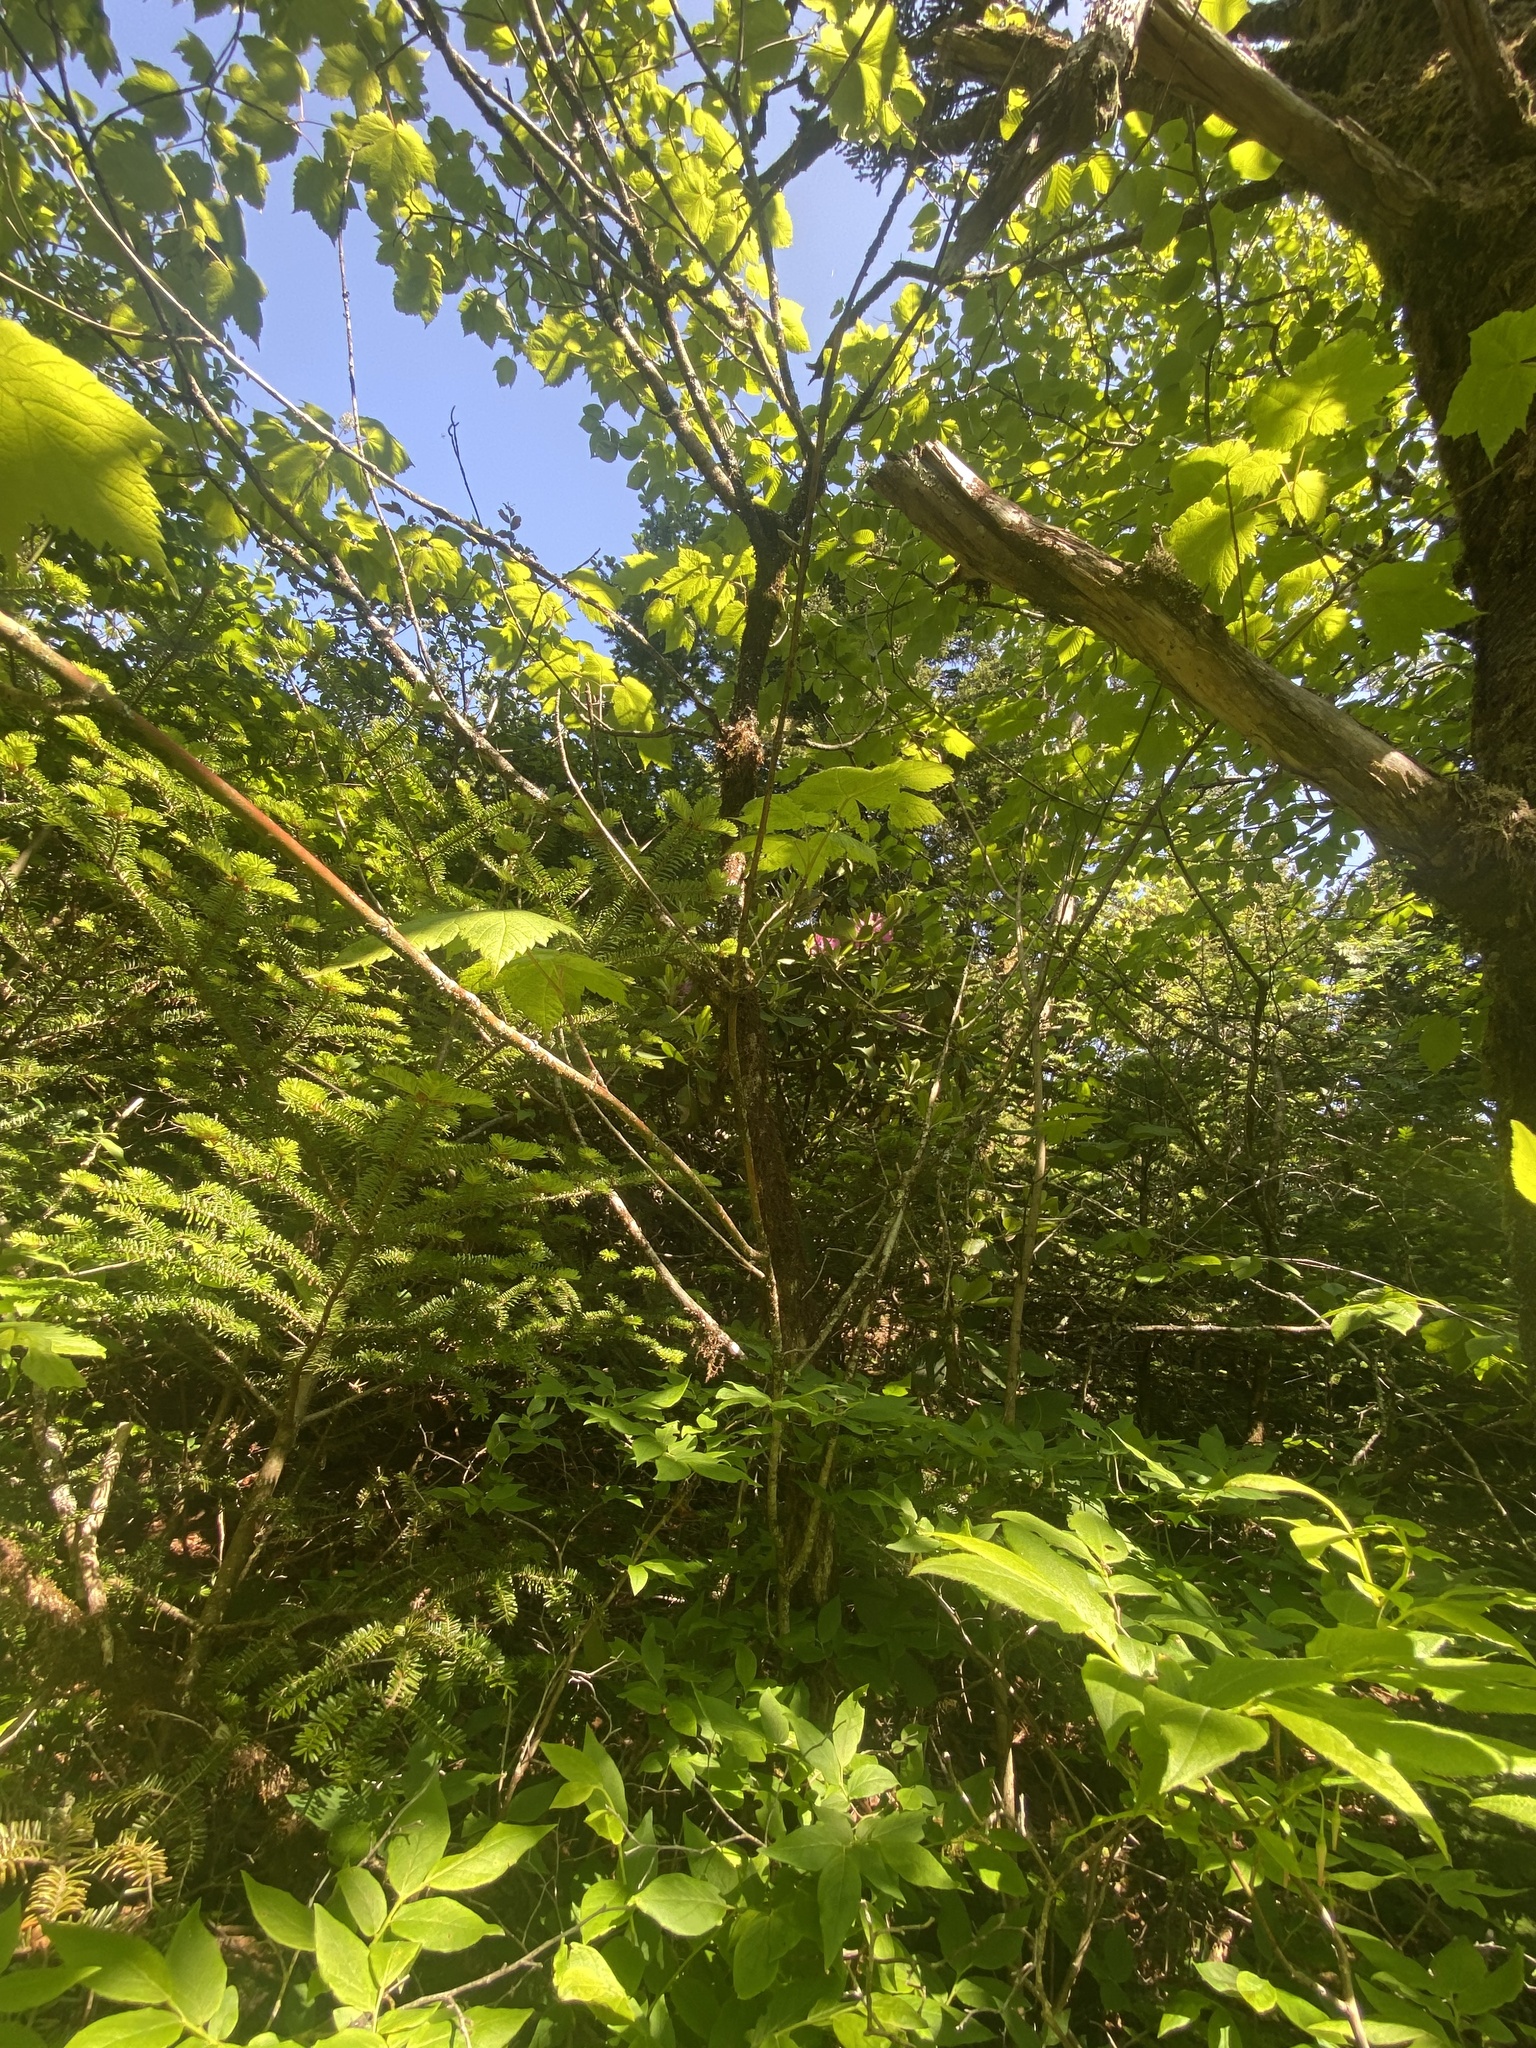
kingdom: Plantae
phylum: Tracheophyta
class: Magnoliopsida
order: Sapindales
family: Sapindaceae
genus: Acer
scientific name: Acer spicatum
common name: Mountain maple
